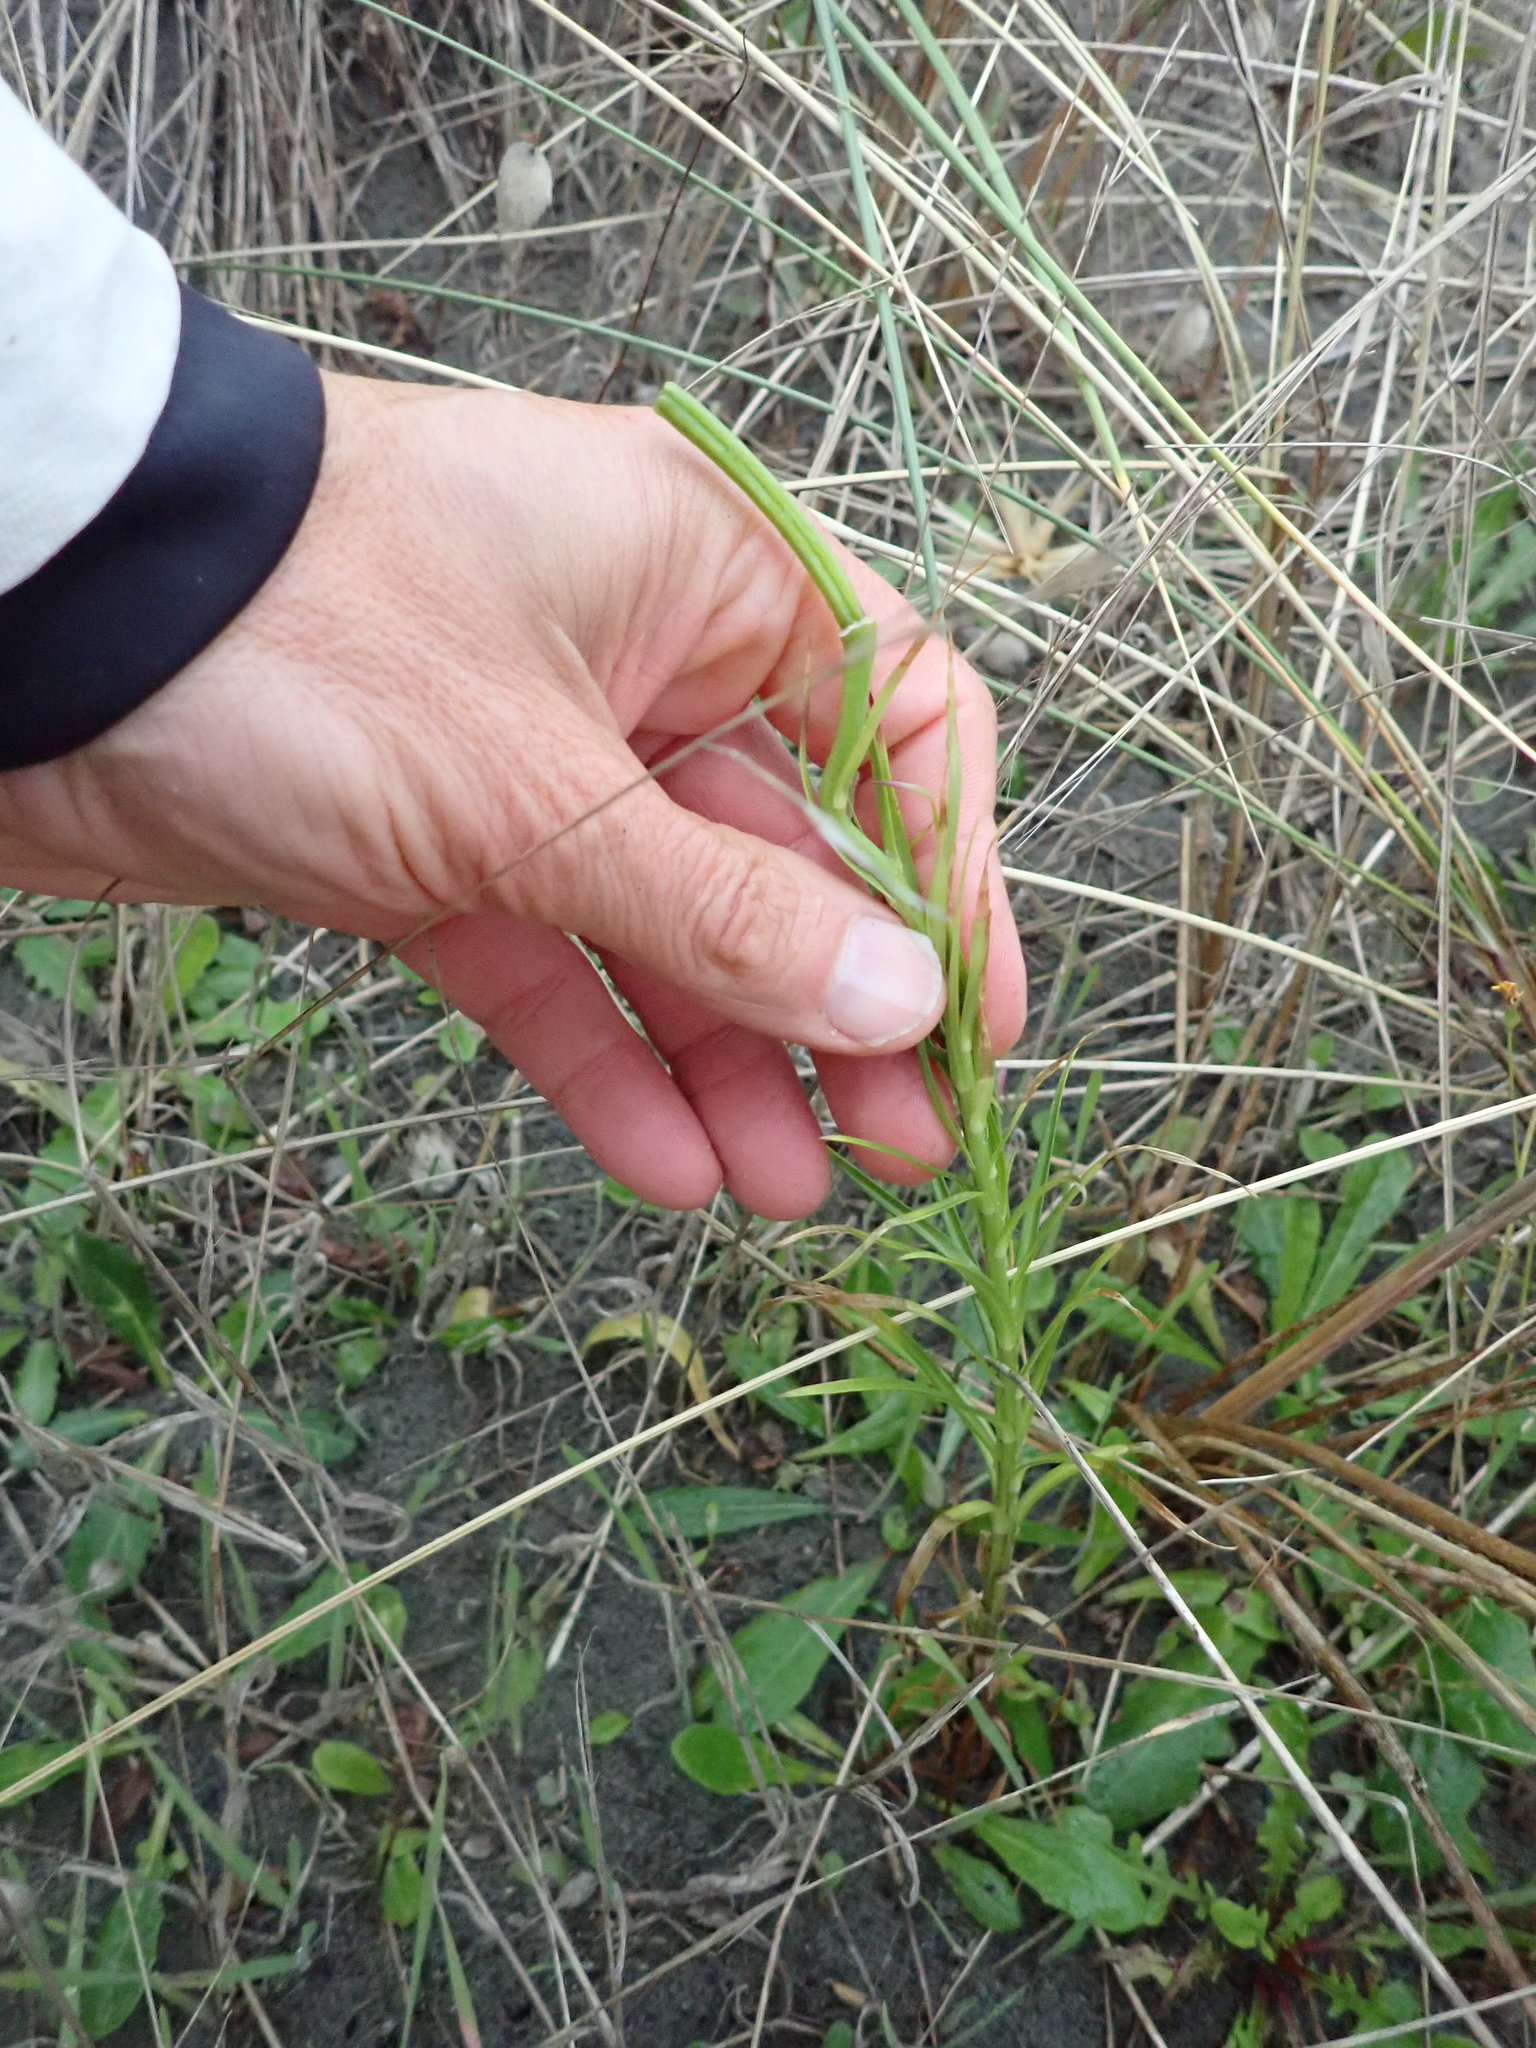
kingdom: Plantae
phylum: Tracheophyta
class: Liliopsida
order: Liliales
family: Liliaceae
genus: Lilium
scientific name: Lilium formosanum
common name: Formosa lily
